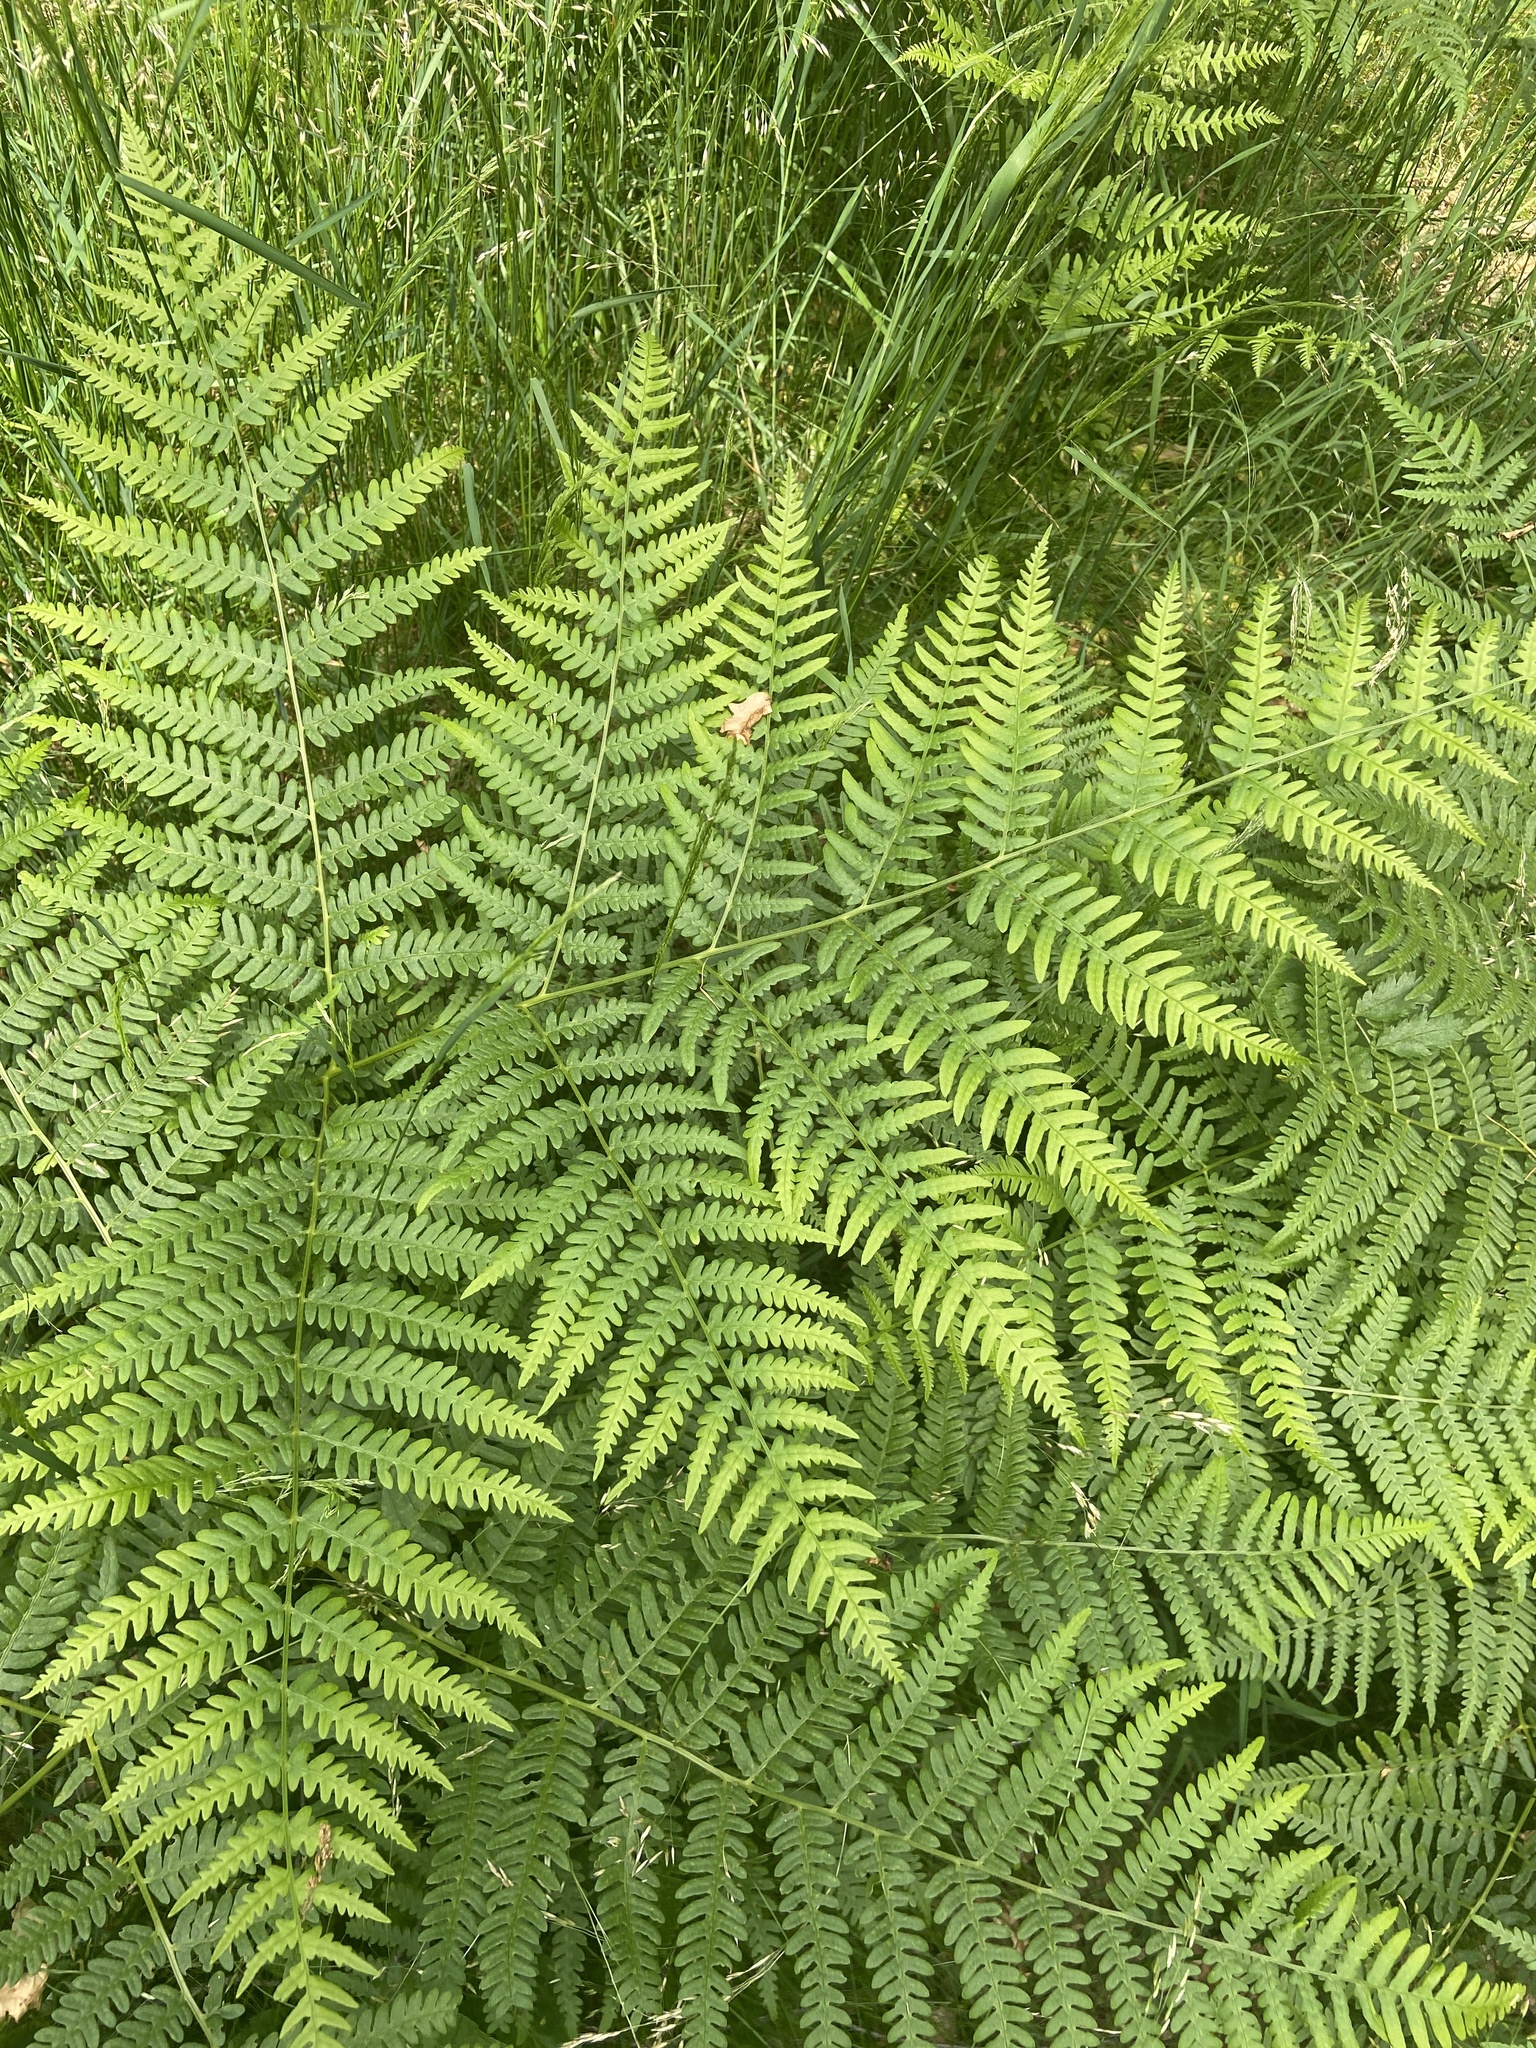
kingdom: Plantae
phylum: Tracheophyta
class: Polypodiopsida
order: Polypodiales
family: Dennstaedtiaceae
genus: Pteridium
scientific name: Pteridium aquilinum
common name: Bracken
